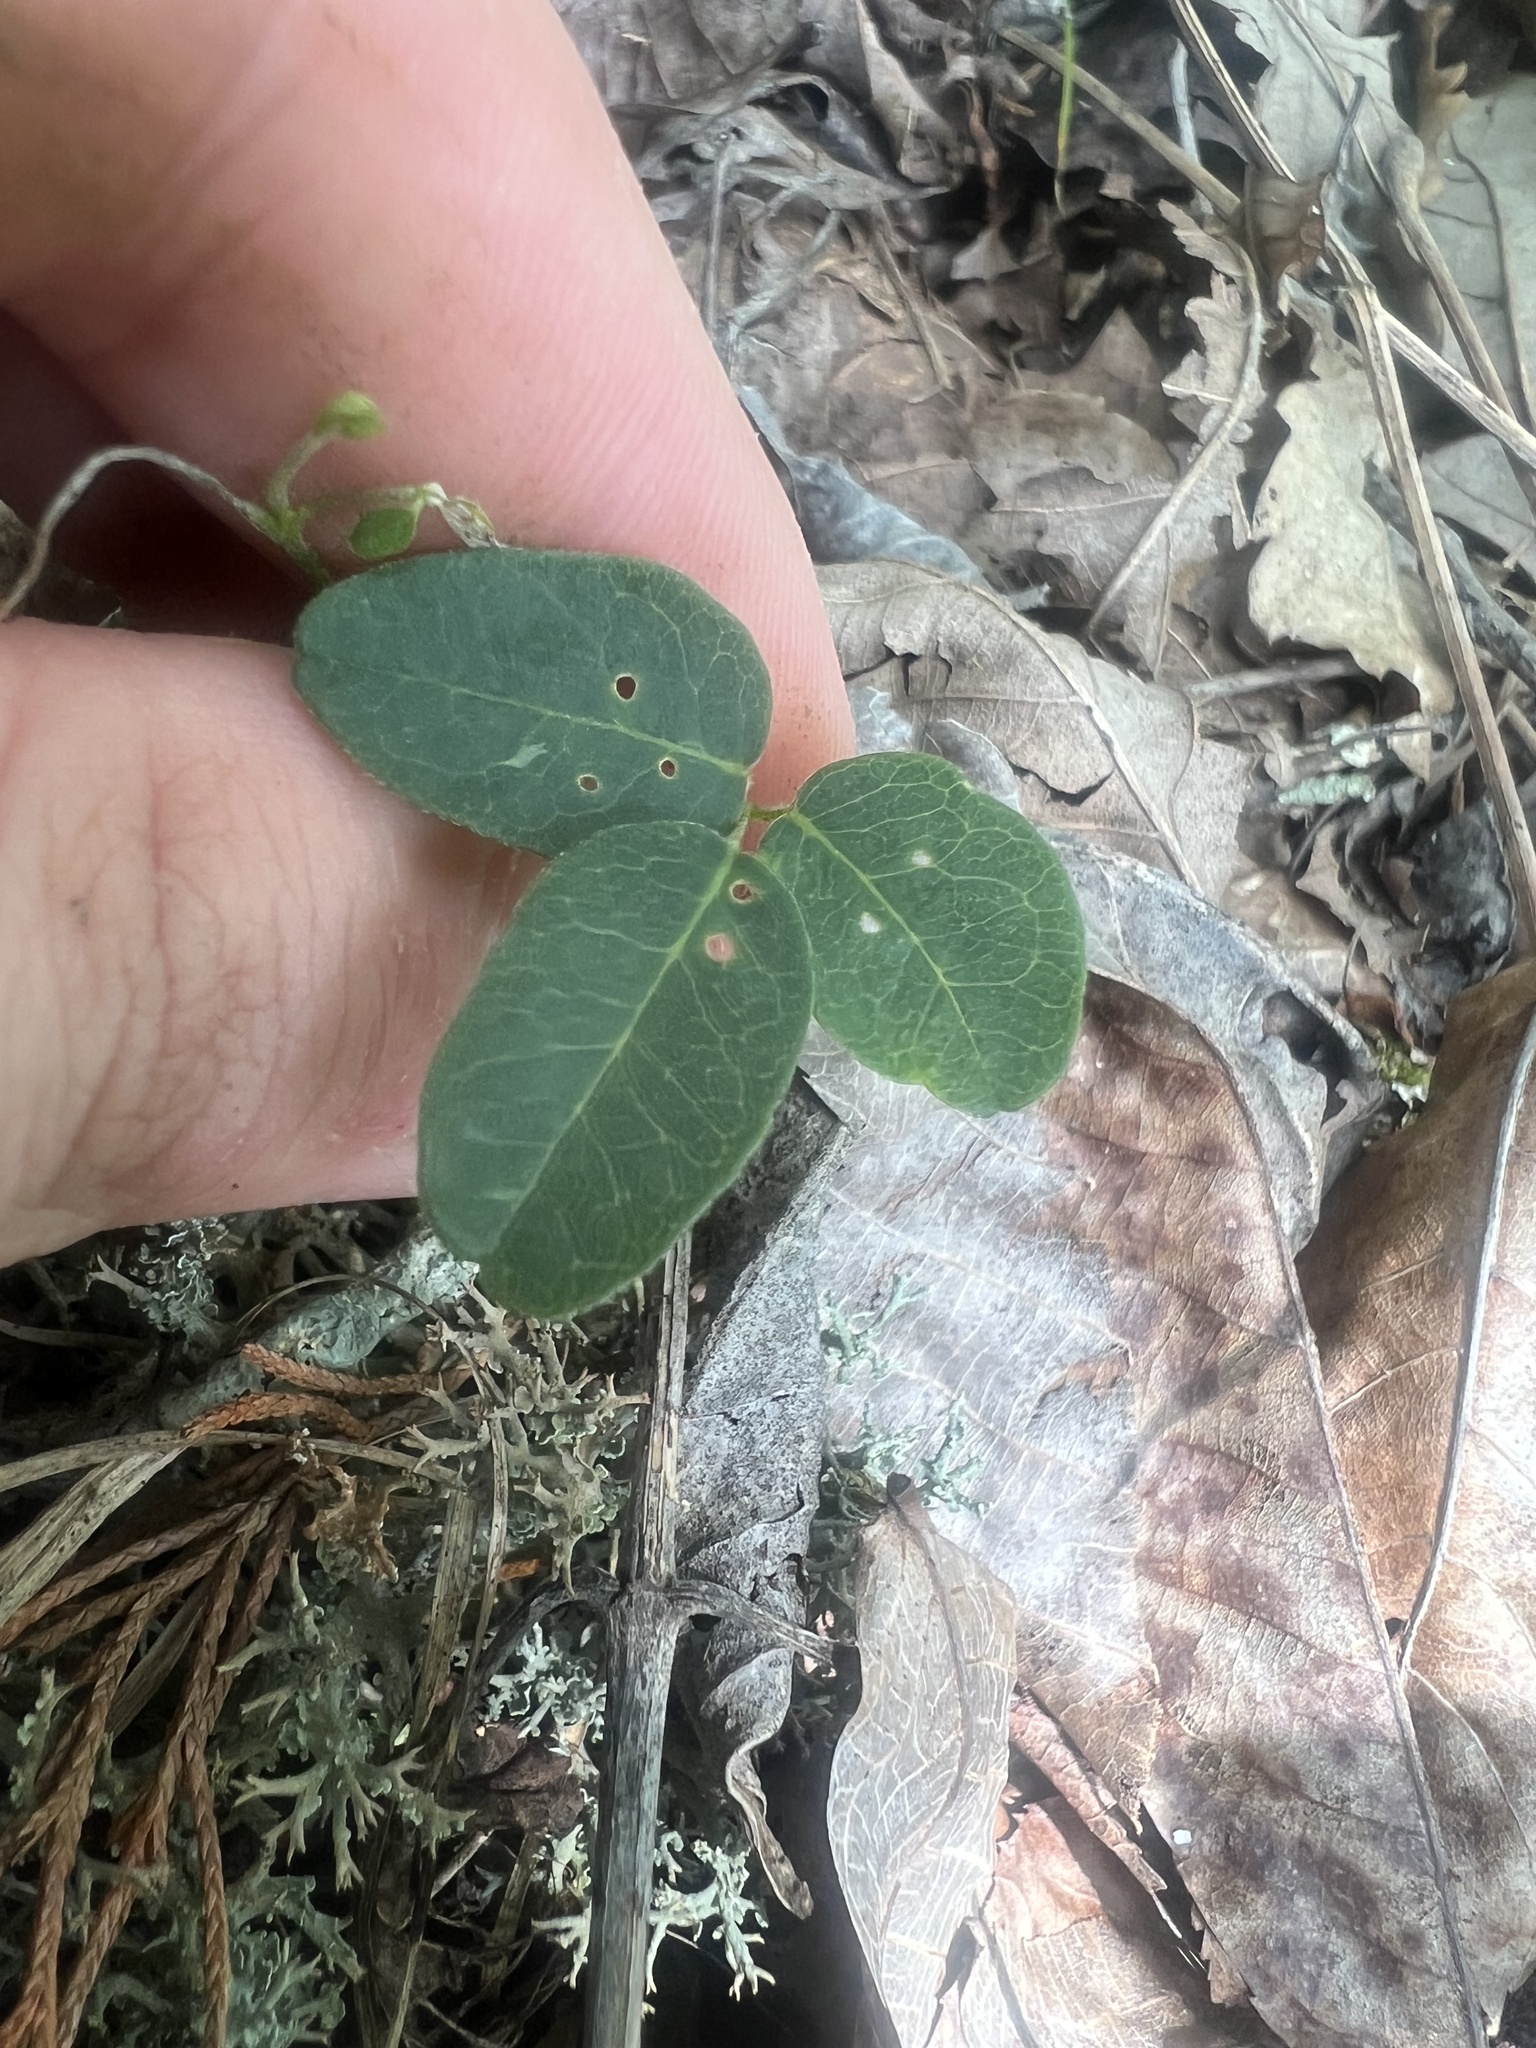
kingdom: Plantae
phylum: Tracheophyta
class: Magnoliopsida
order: Fabales
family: Fabaceae
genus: Galactia
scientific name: Galactia regularis
